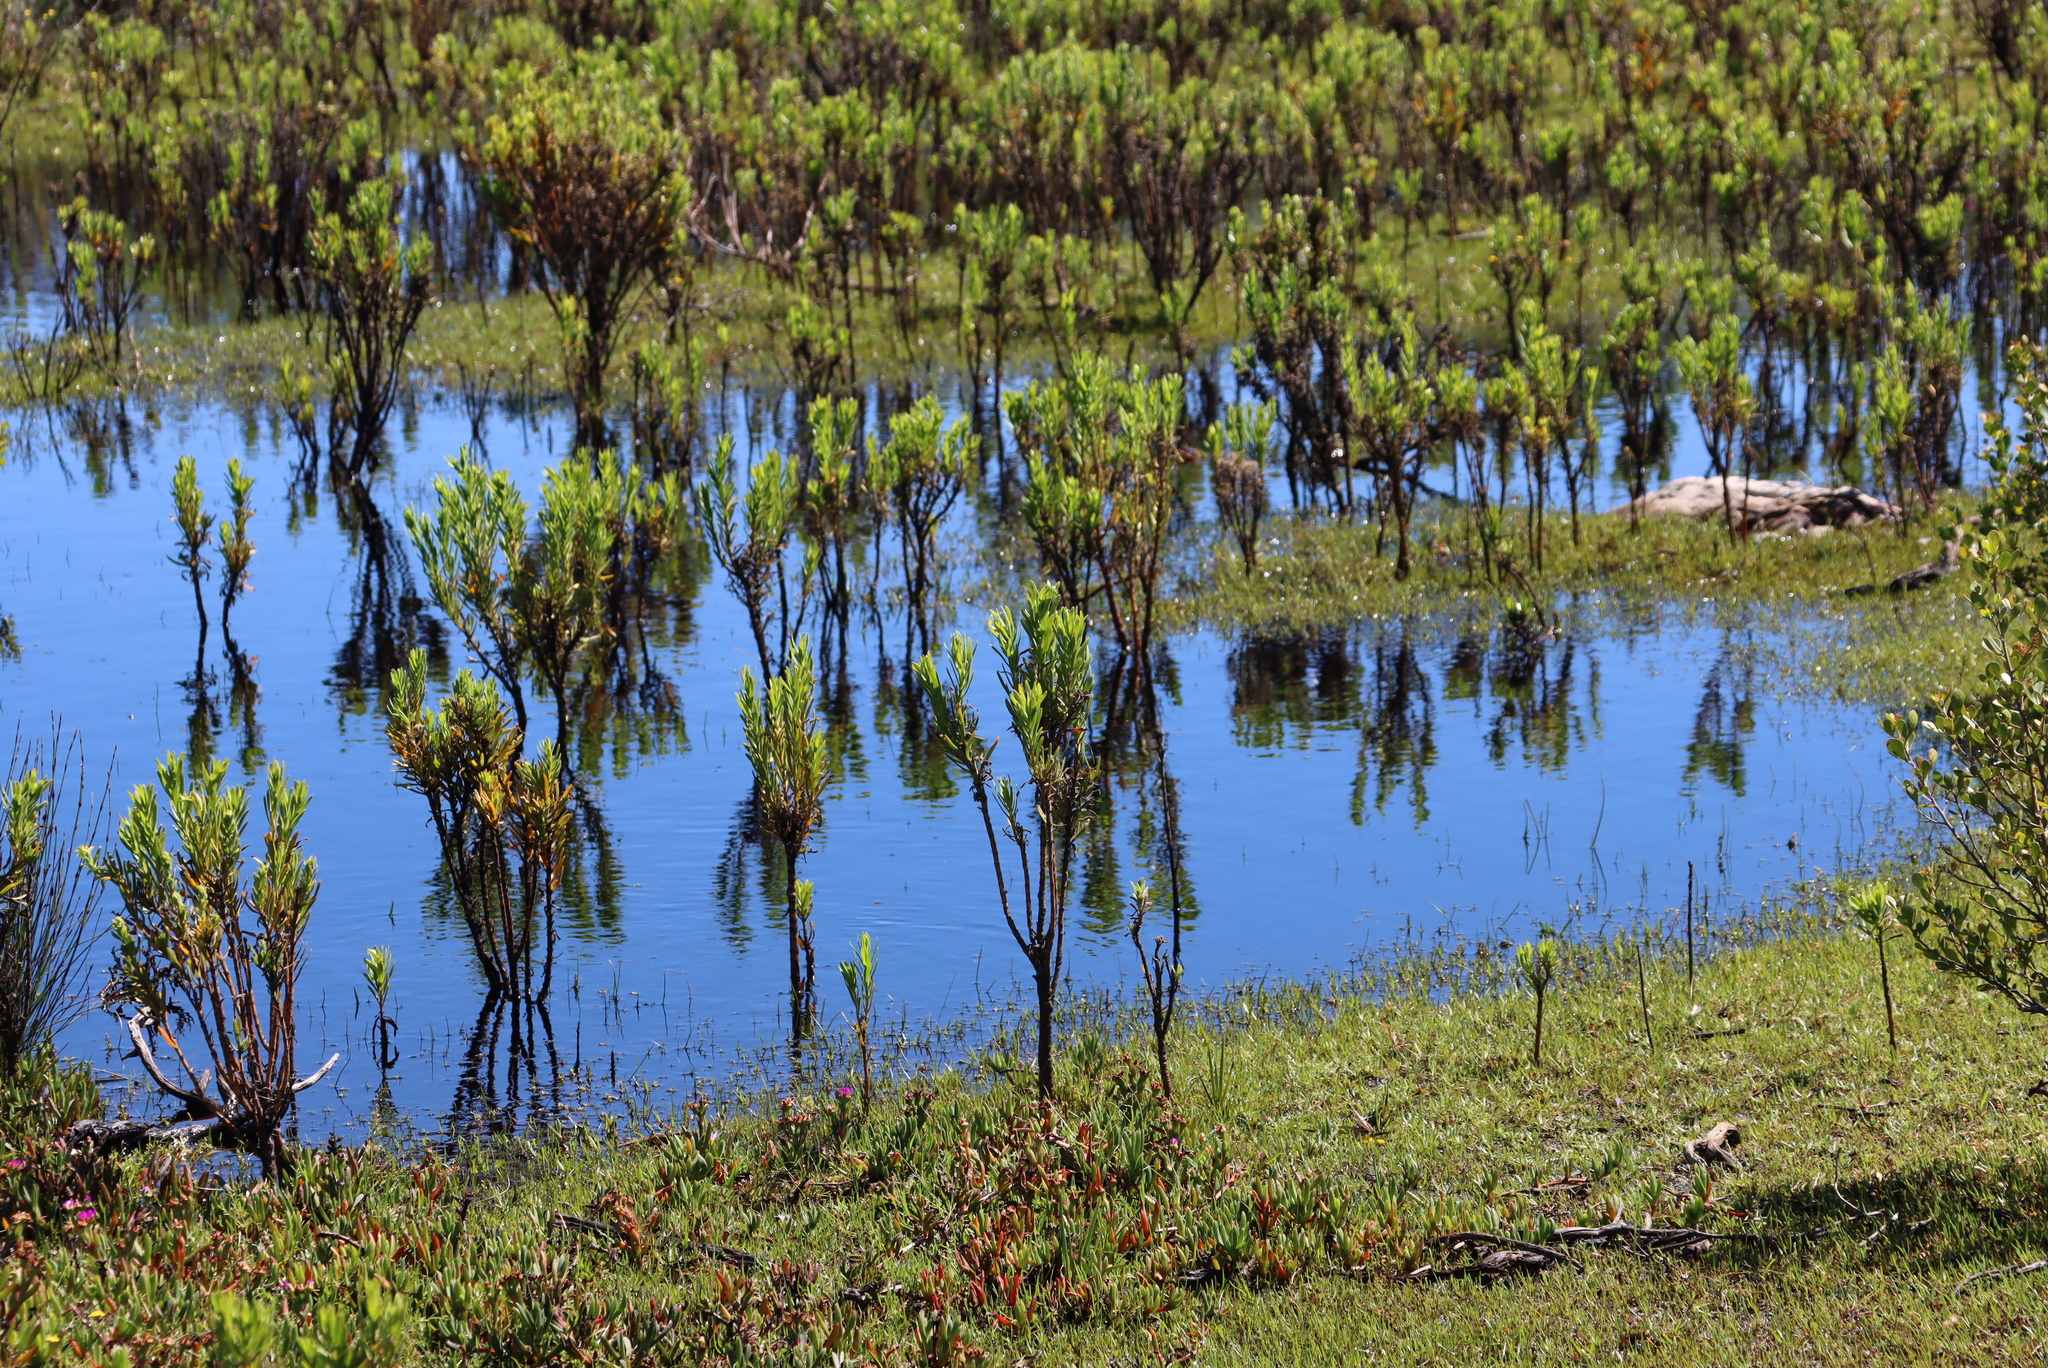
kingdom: Plantae
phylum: Tracheophyta
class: Magnoliopsida
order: Gentianales
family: Gentianaceae
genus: Orphium
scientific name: Orphium frutescens
